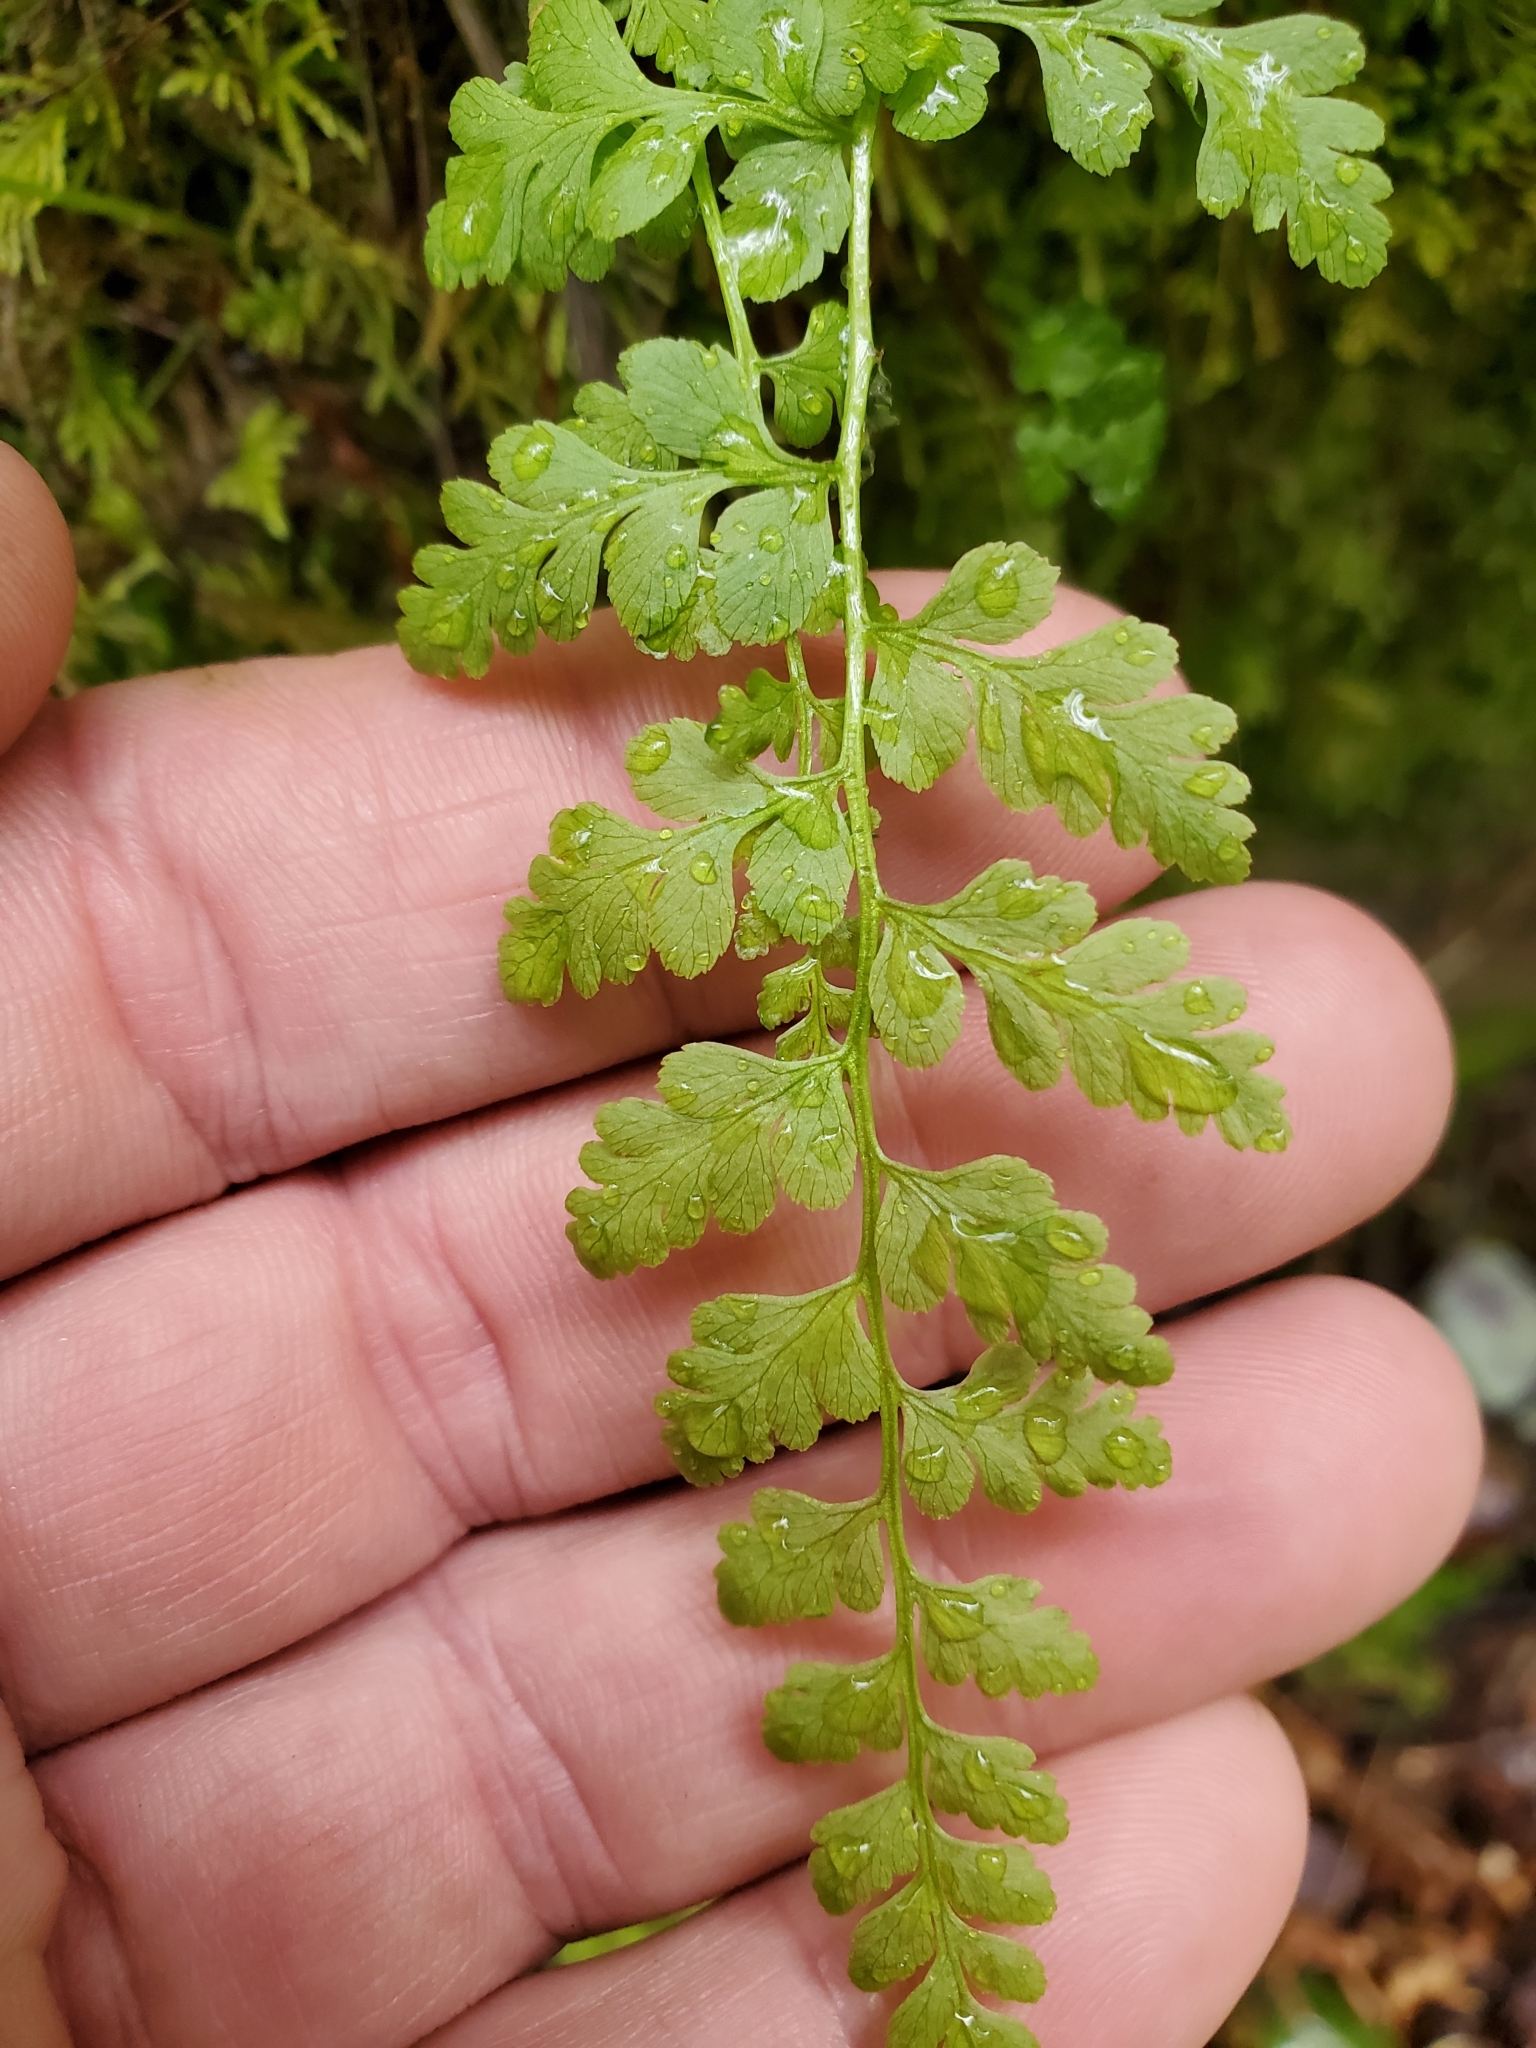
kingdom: Plantae
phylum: Tracheophyta
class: Polypodiopsida
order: Polypodiales
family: Cystopteridaceae
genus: Cystopteris
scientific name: Cystopteris fragilis
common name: Brittle bladder fern
